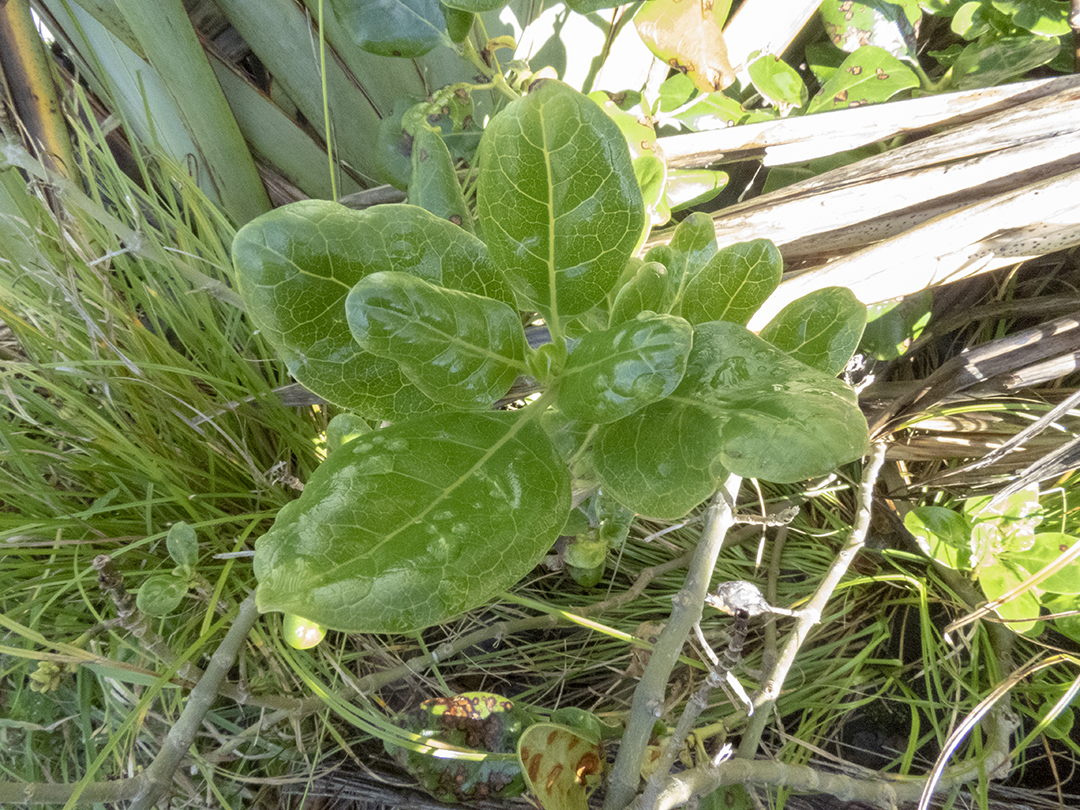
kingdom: Plantae
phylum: Tracheophyta
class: Magnoliopsida
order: Gentianales
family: Rubiaceae
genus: Coprosma
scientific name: Coprosma repens
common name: Tree bedstraw
